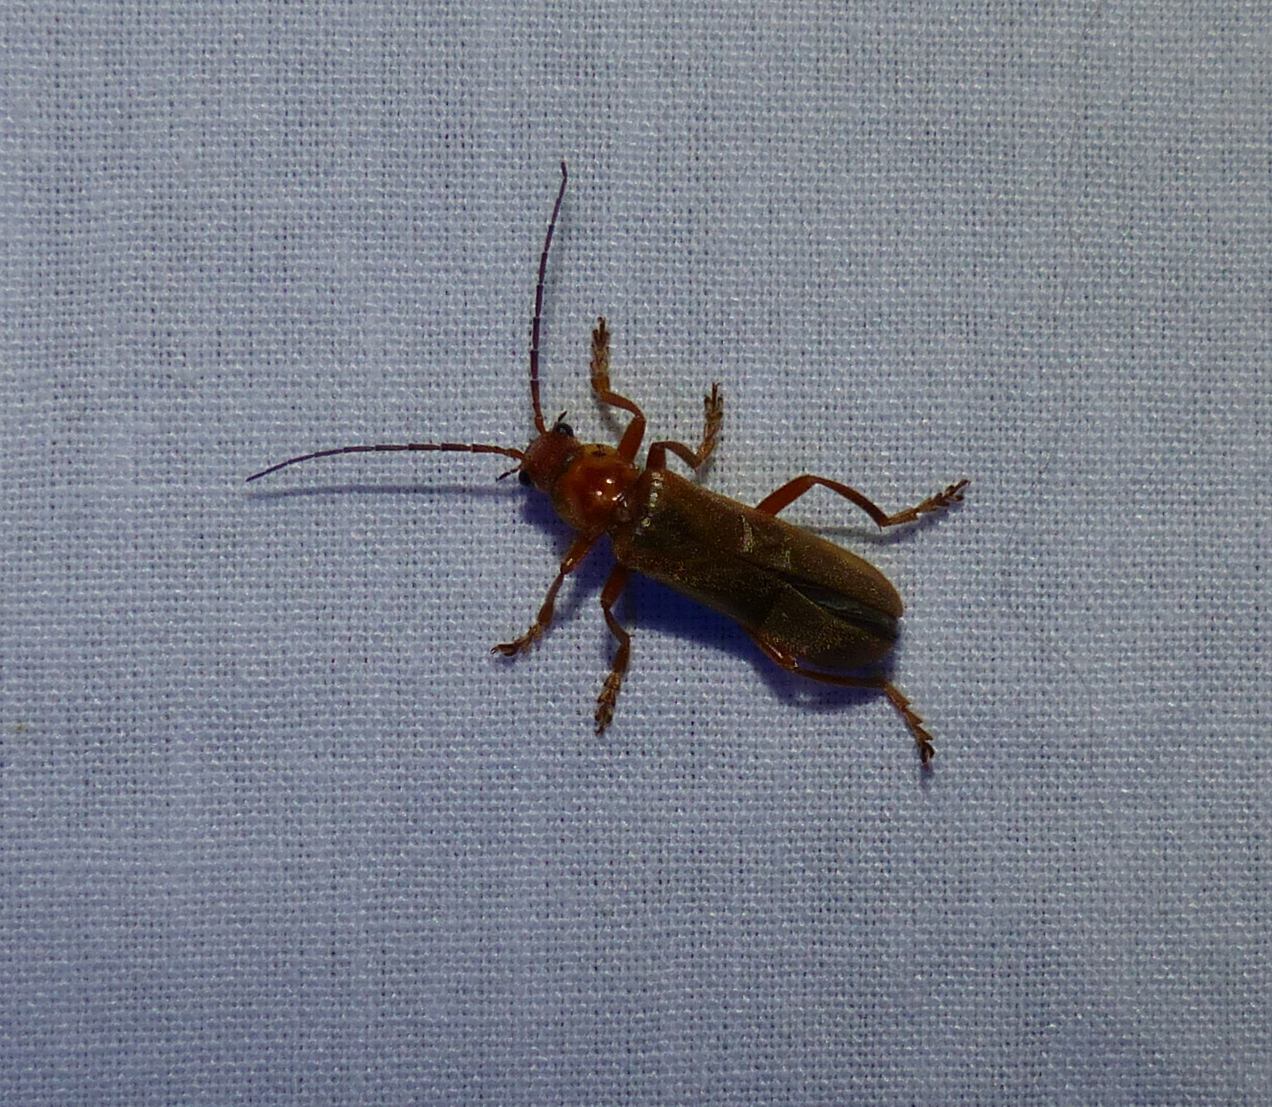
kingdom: Animalia
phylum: Arthropoda
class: Insecta
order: Coleoptera
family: Cantharidae
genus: Cantharis
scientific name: Cantharis rufa
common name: Red-spotted soldier beetle
